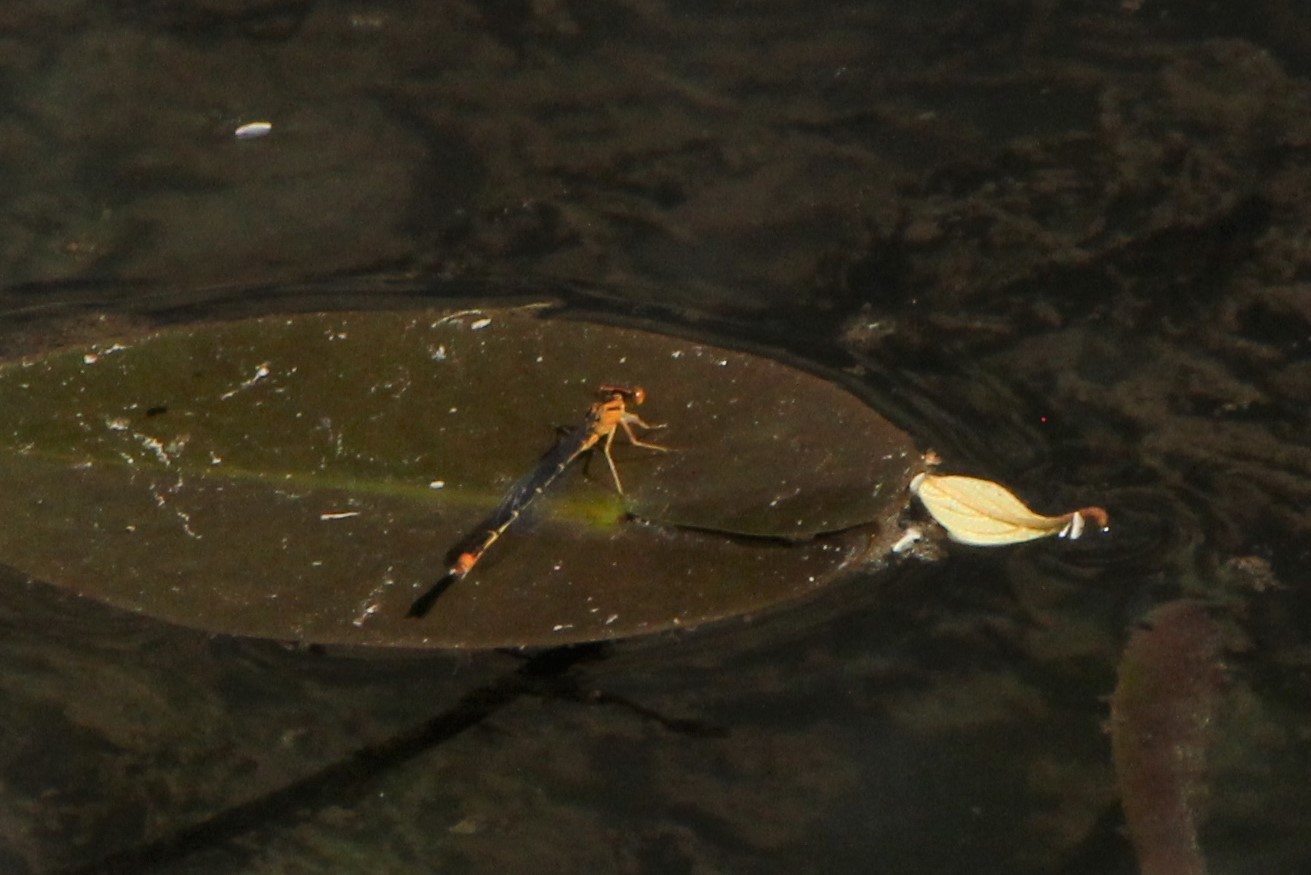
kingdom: Animalia
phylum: Arthropoda
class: Insecta
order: Odonata
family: Coenagrionidae
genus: Enallagma
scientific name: Enallagma signatum
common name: Orange bluet
